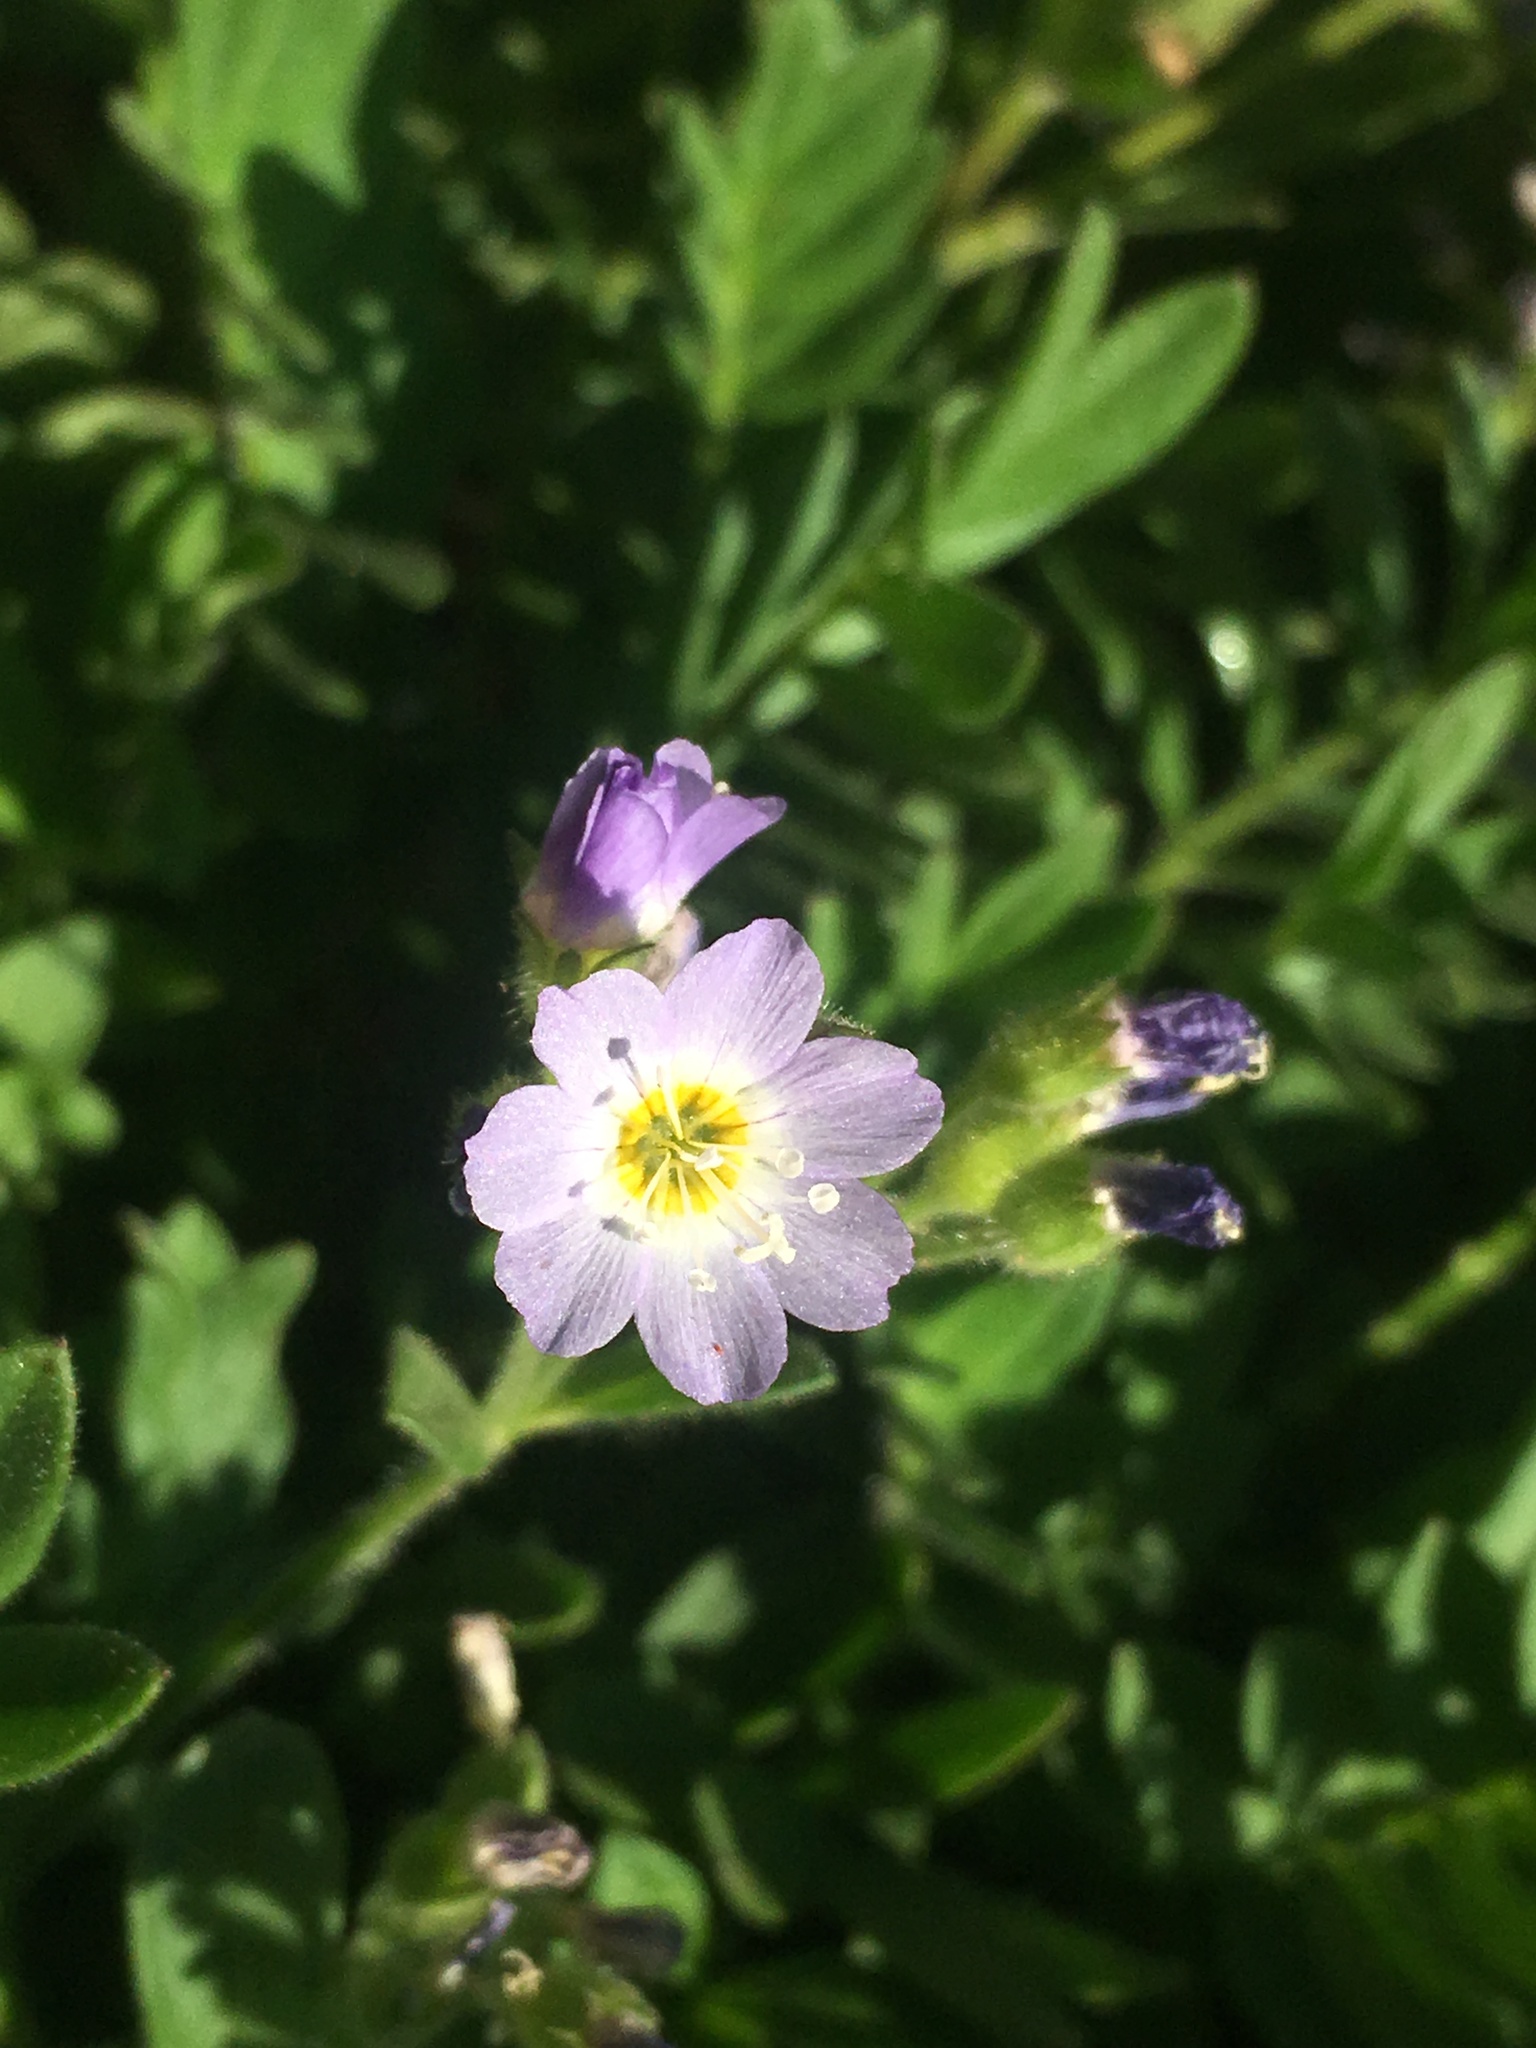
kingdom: Plantae
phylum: Tracheophyta
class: Magnoliopsida
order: Ericales
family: Polemoniaceae
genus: Polemonium
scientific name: Polemonium californicum
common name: California jacob's ladder
